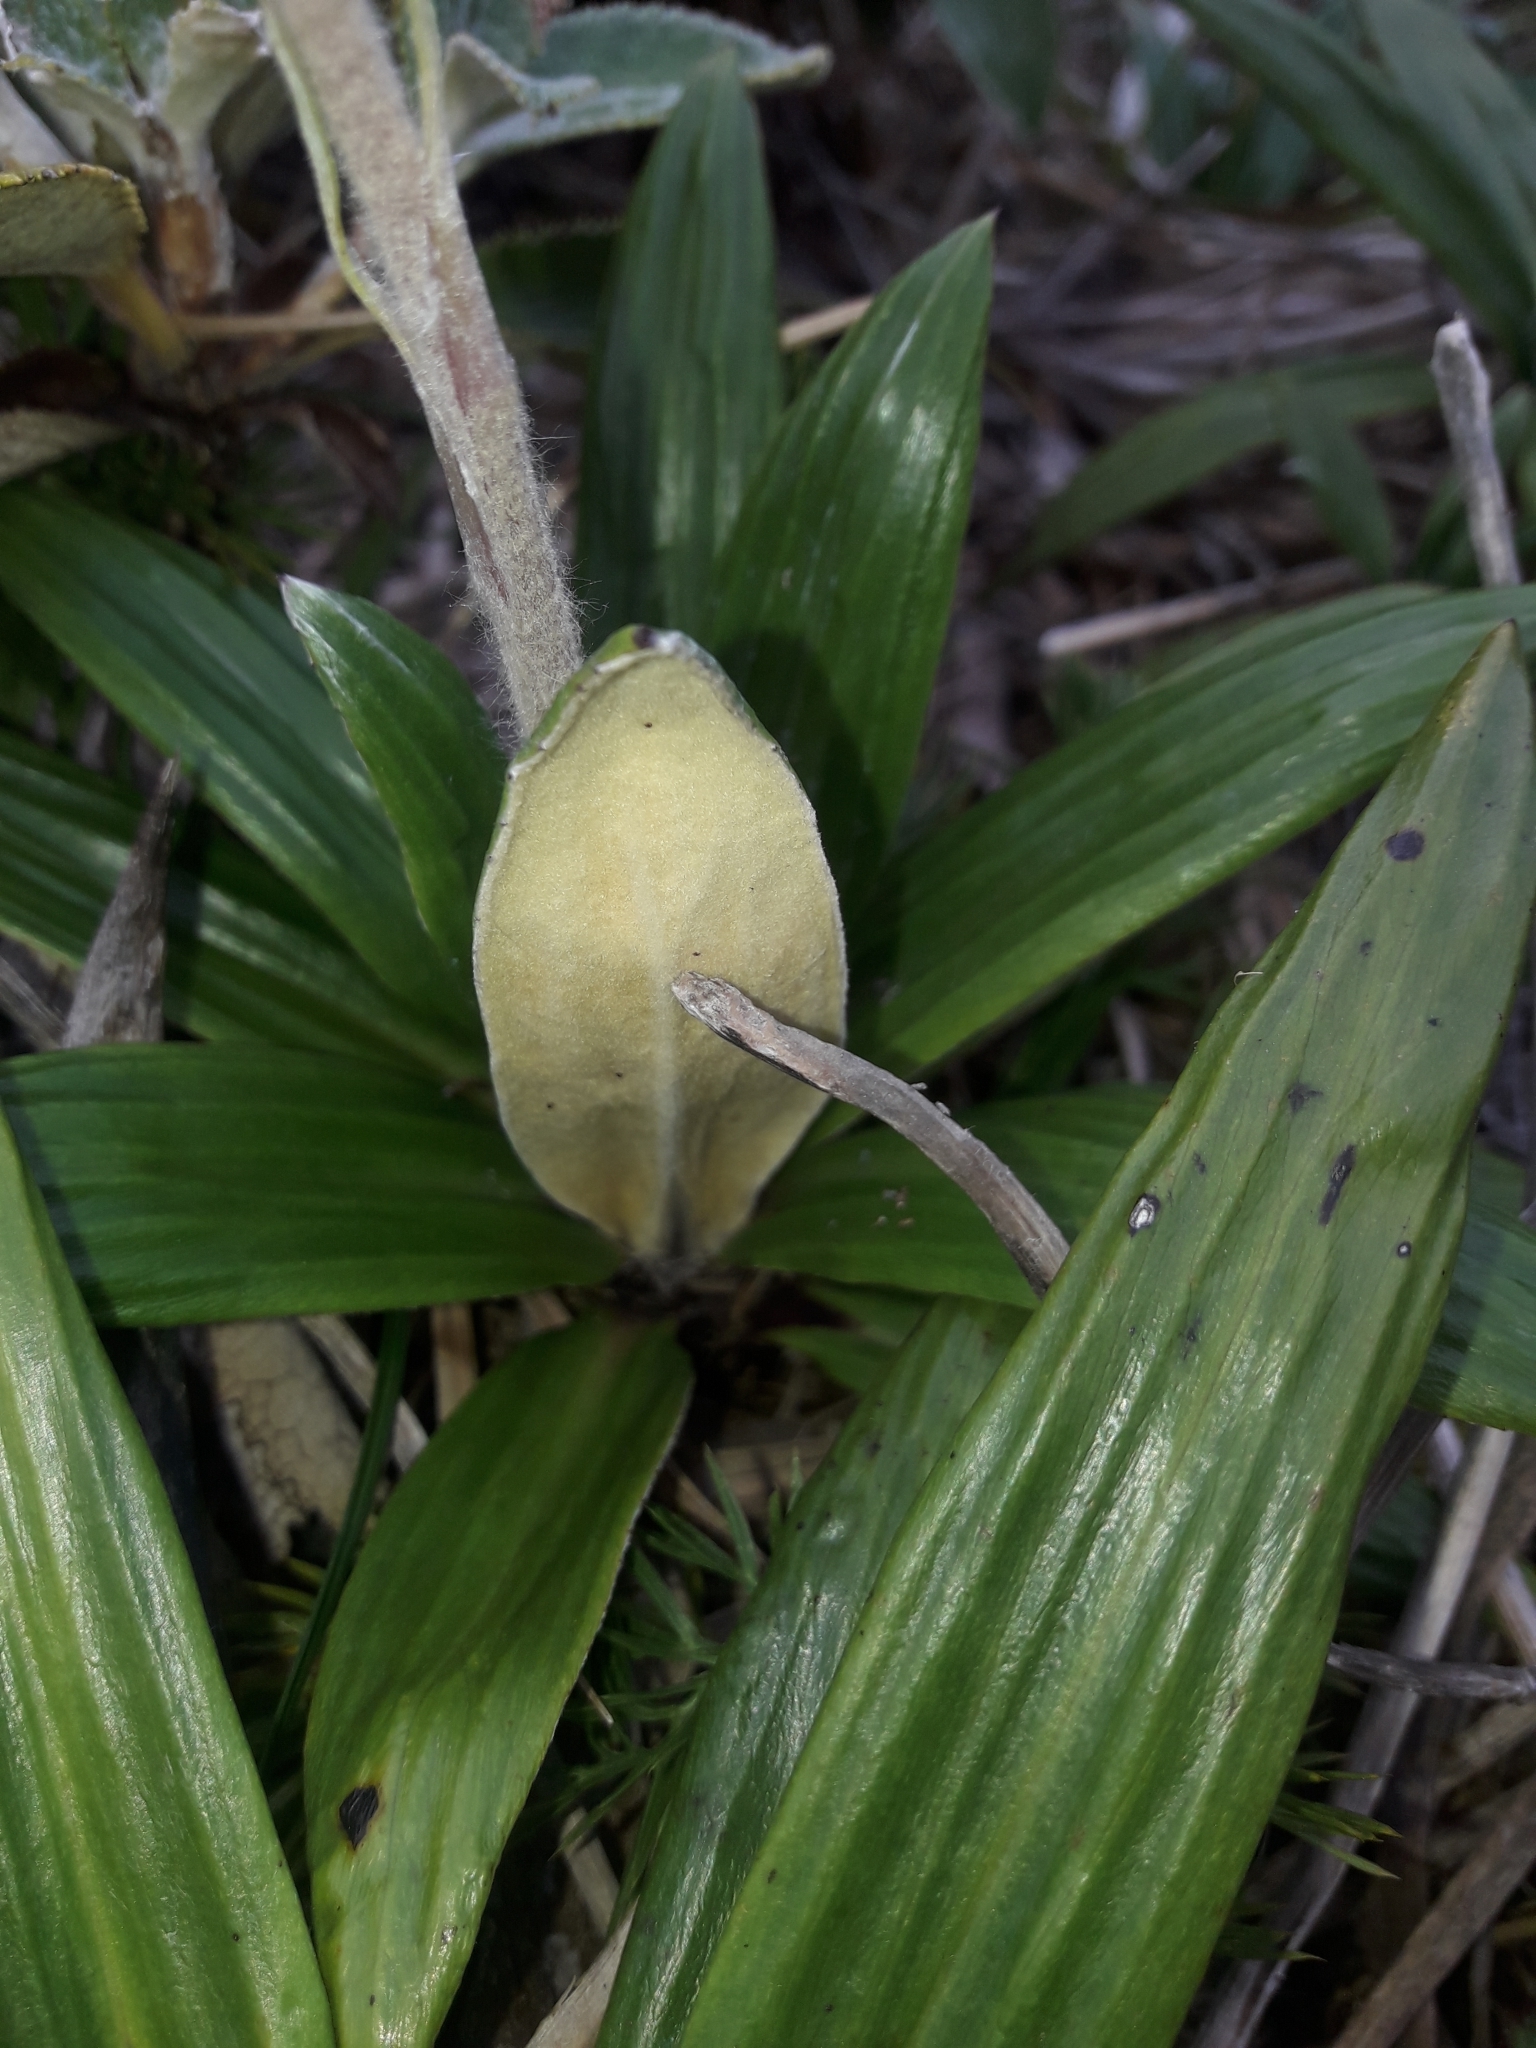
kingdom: Plantae
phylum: Tracheophyta
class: Magnoliopsida
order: Asterales
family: Asteraceae
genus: Celmisia
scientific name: Celmisia spectabilis
